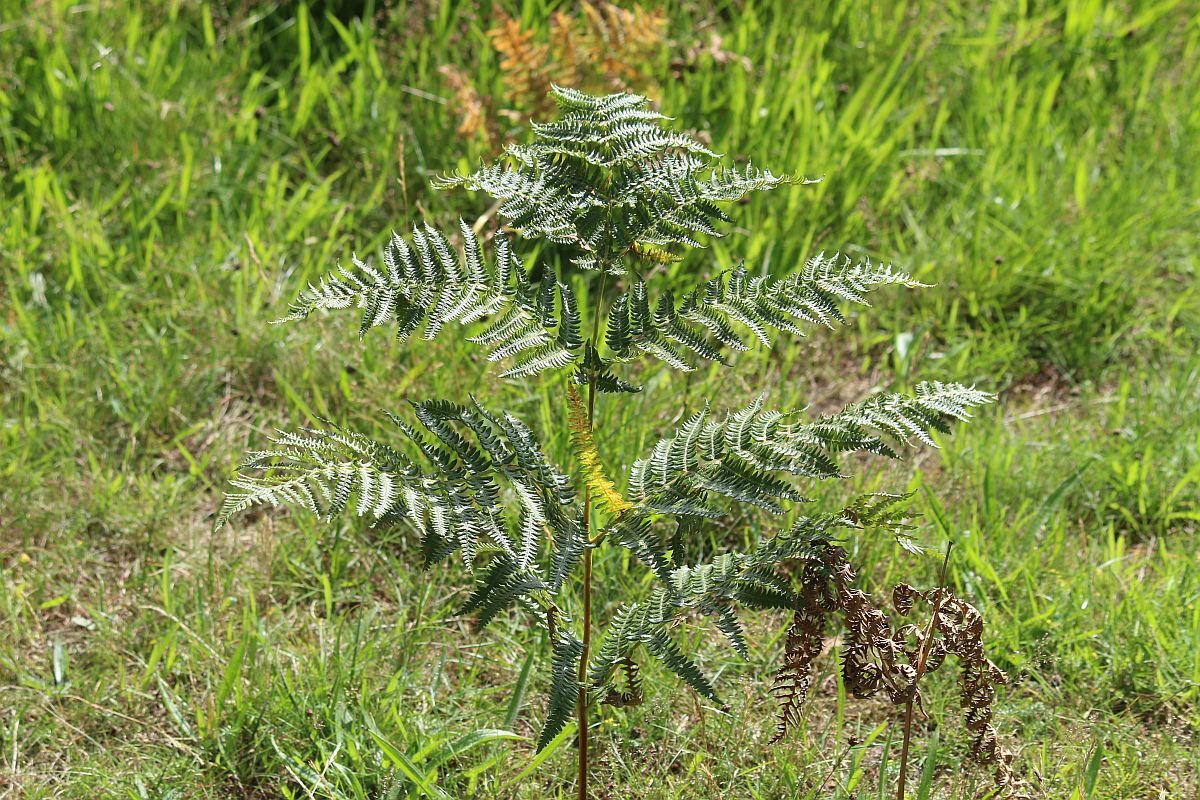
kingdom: Plantae
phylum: Tracheophyta
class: Polypodiopsida
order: Polypodiales
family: Dennstaedtiaceae
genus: Pteridium
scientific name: Pteridium aquilinum
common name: Bracken
